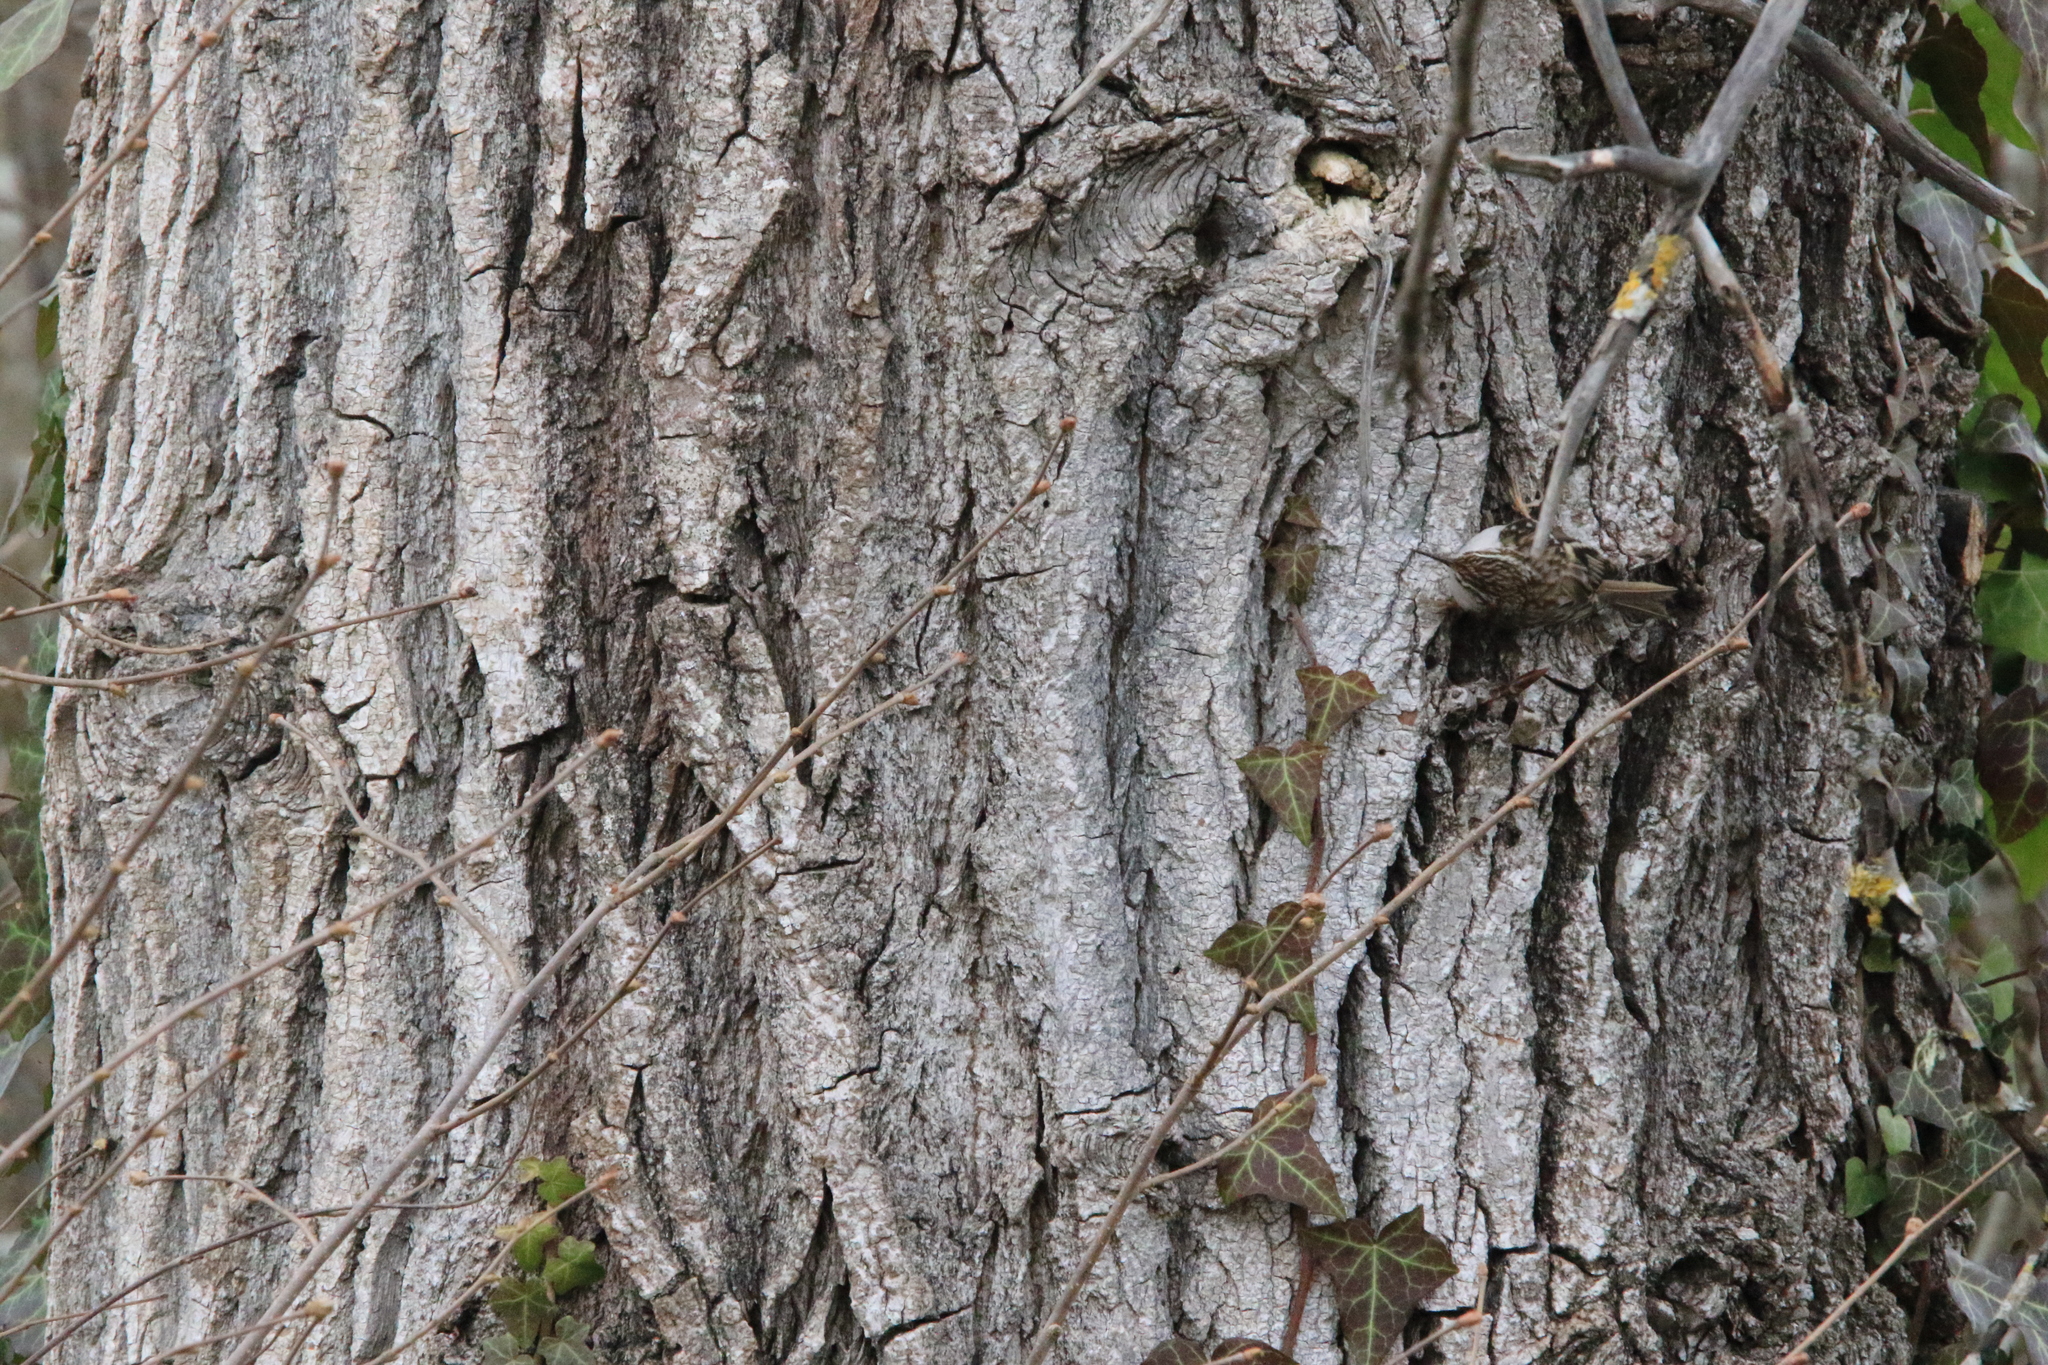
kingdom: Animalia
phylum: Chordata
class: Aves
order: Passeriformes
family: Certhiidae
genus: Certhia
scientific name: Certhia americana
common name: Brown creeper
